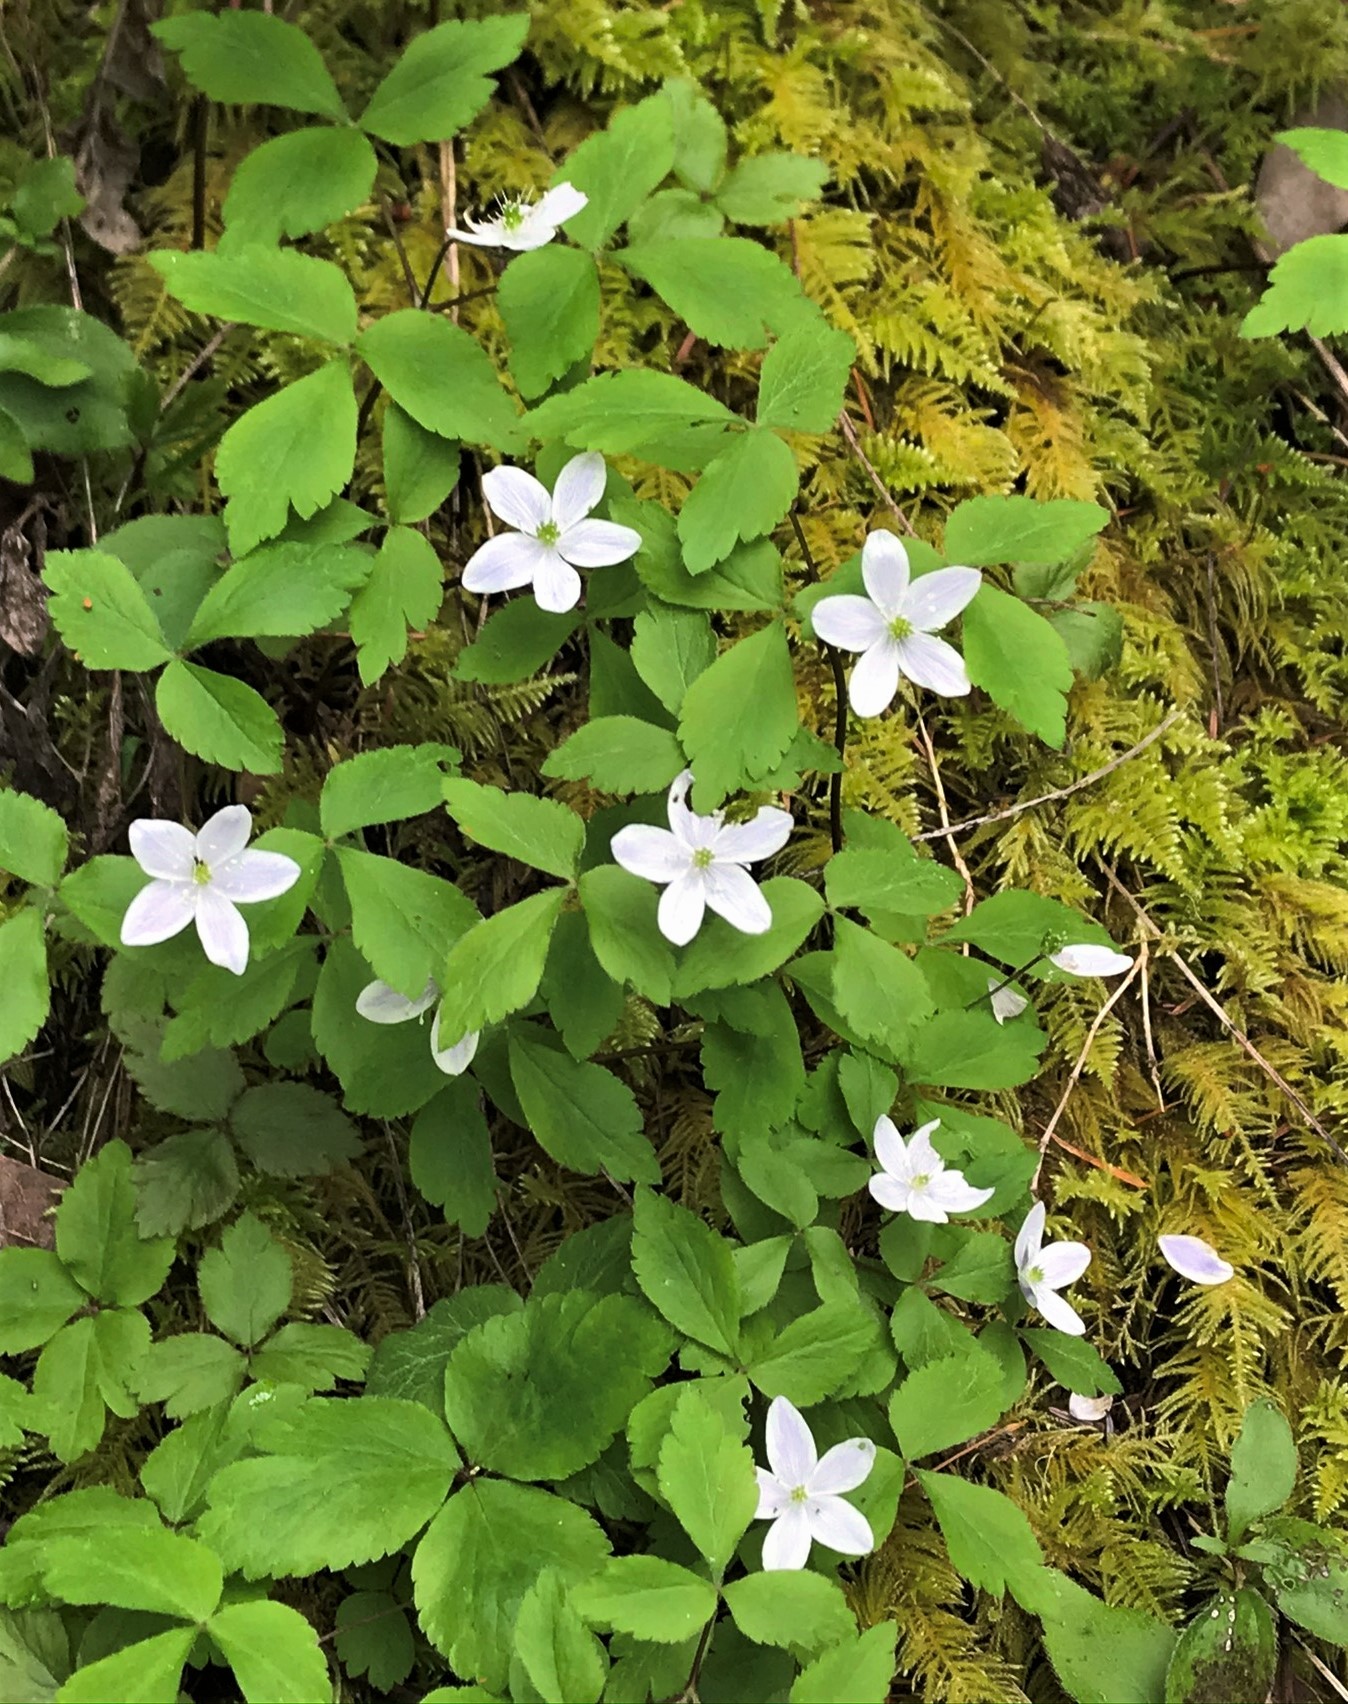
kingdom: Plantae
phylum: Tracheophyta
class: Magnoliopsida
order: Ranunculales
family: Ranunculaceae
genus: Anemone
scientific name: Anemone
